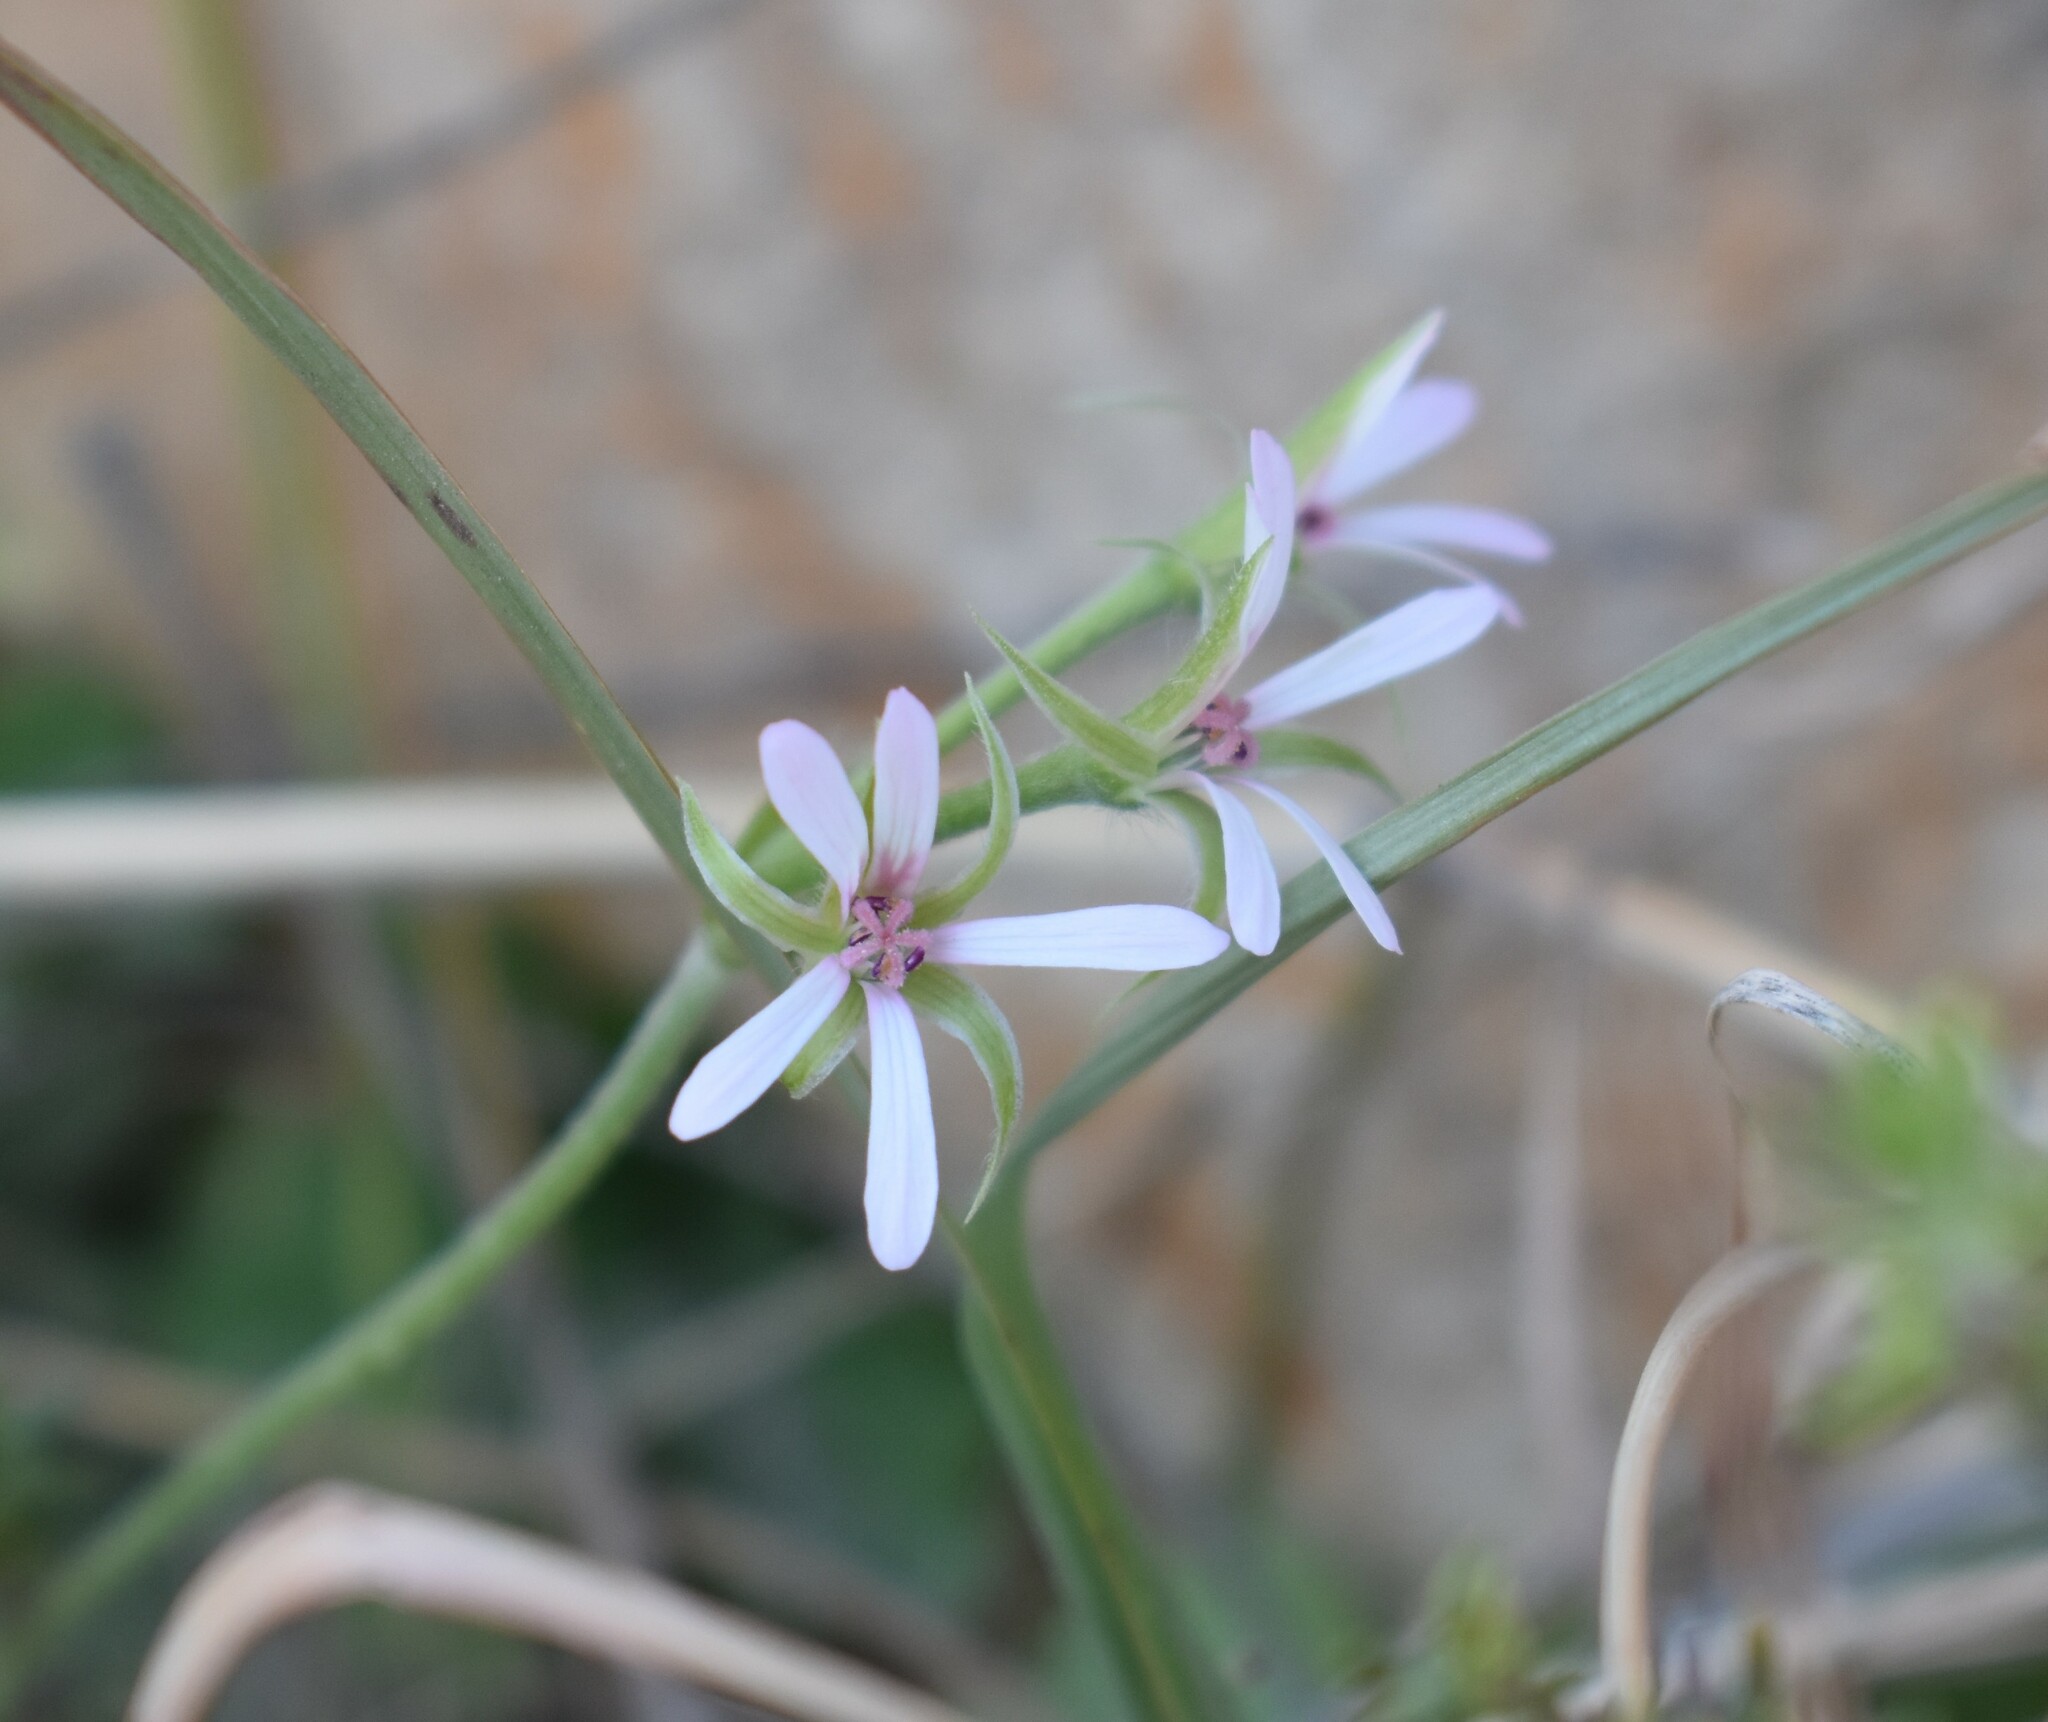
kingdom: Plantae
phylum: Tracheophyta
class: Magnoliopsida
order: Geraniales
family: Geraniaceae
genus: Pelargonium
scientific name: Pelargonium alchemilloides
